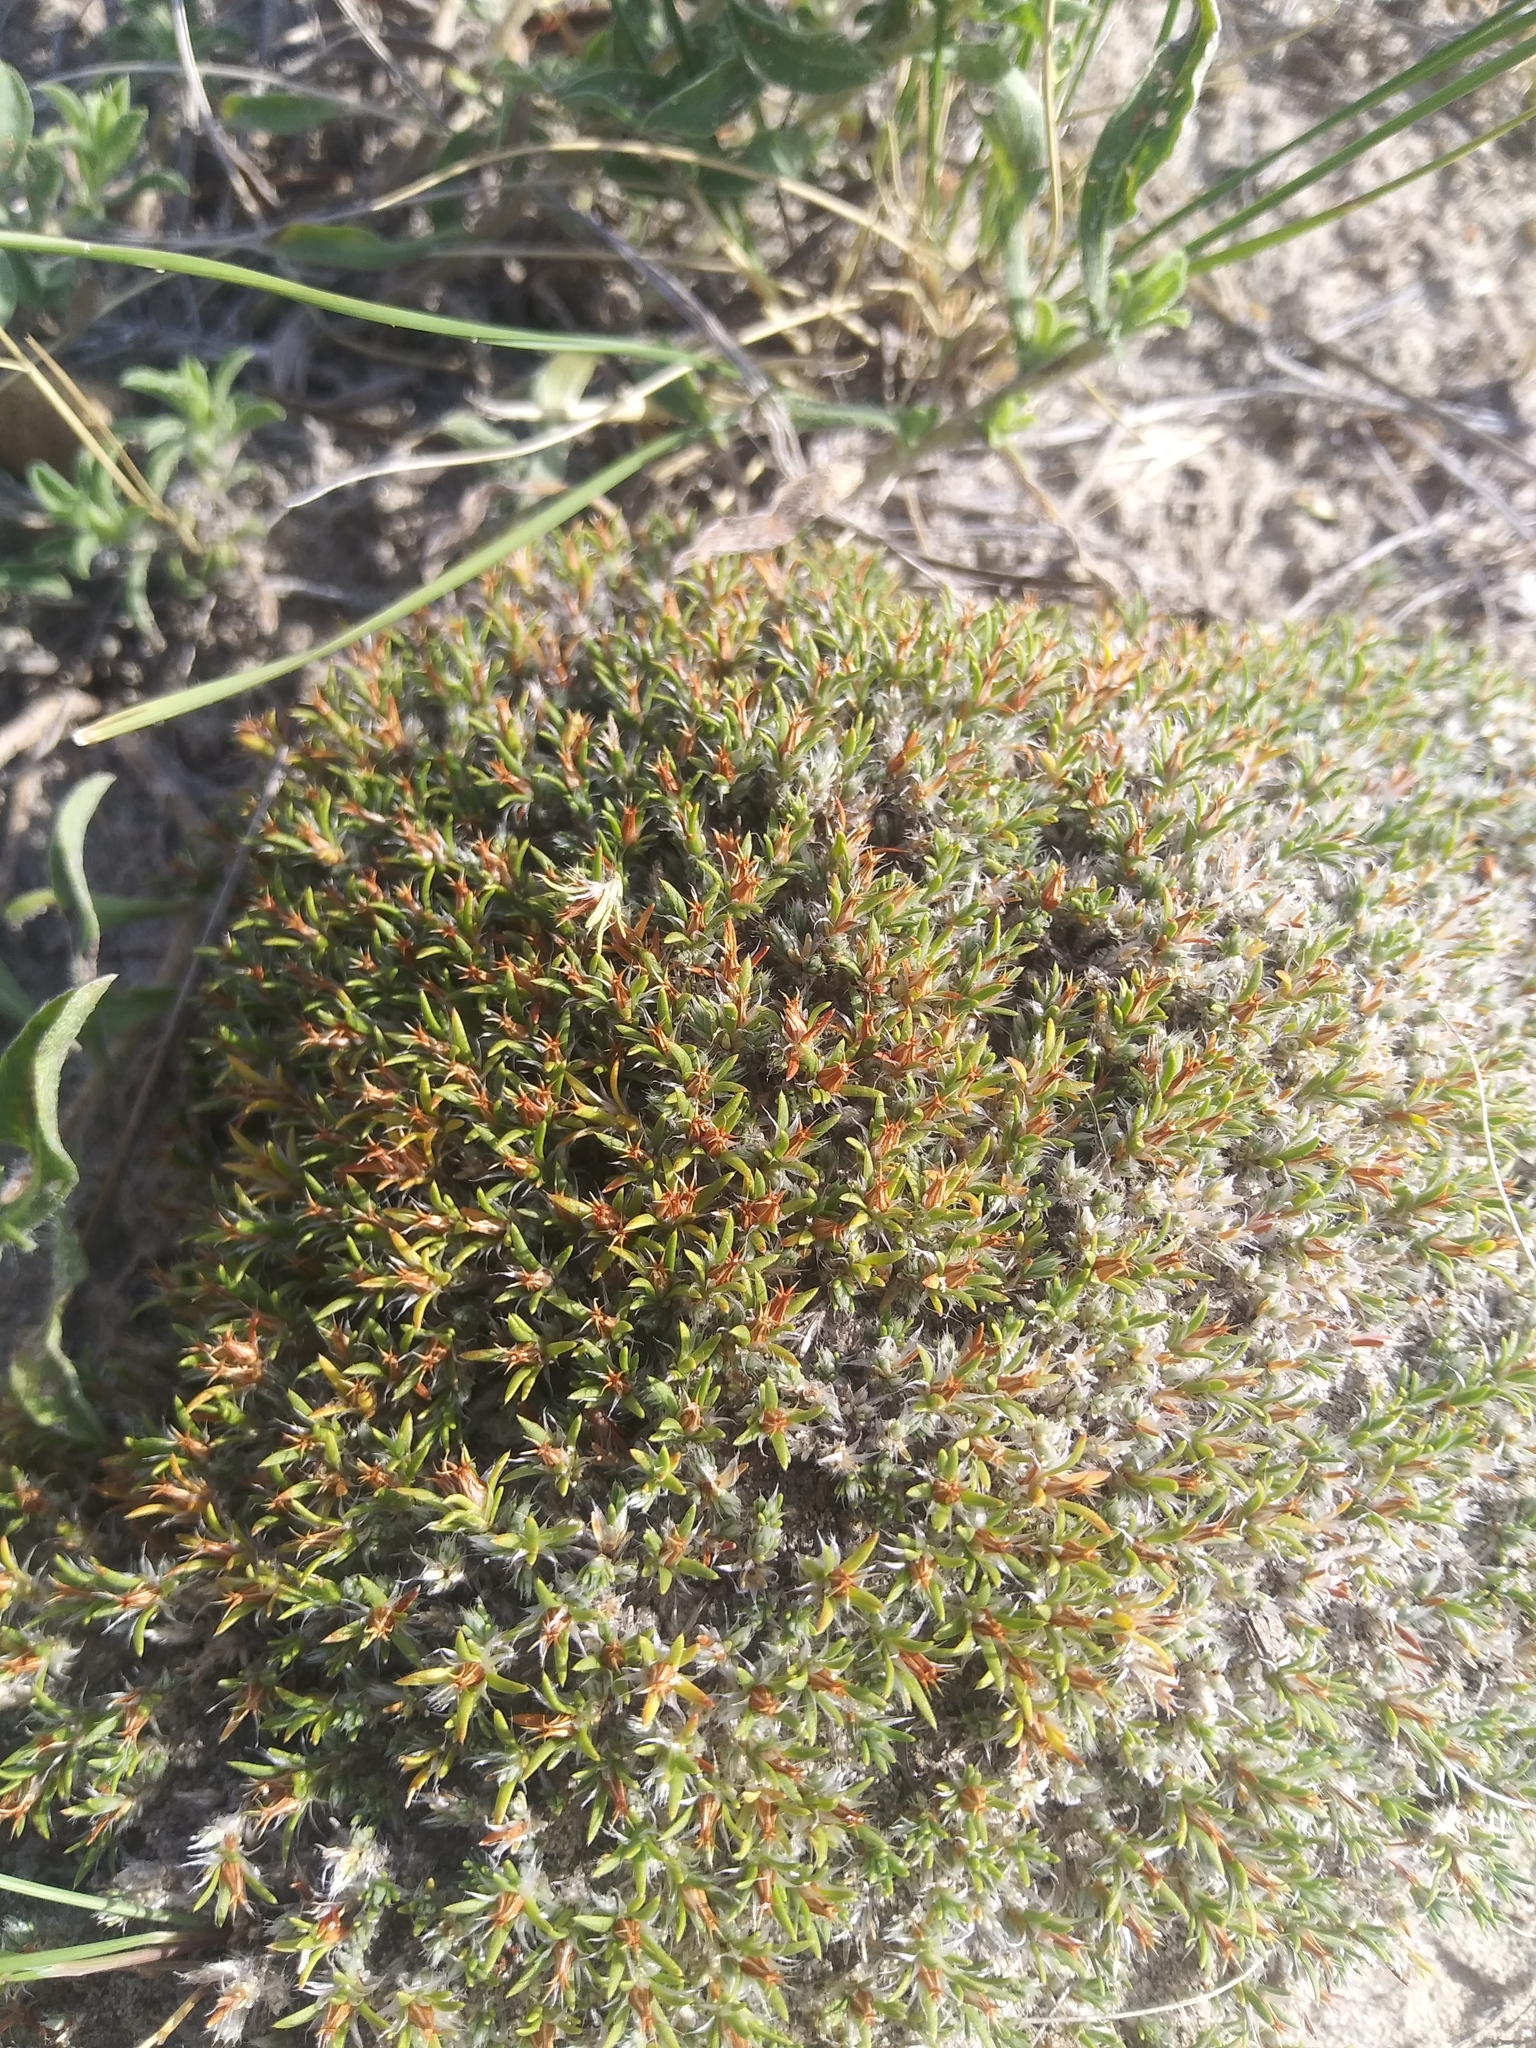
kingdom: Plantae
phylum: Tracheophyta
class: Magnoliopsida
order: Caryophyllales
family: Caryophyllaceae
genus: Paronychia
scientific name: Paronychia sessiliflora
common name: Creeping nailwort
